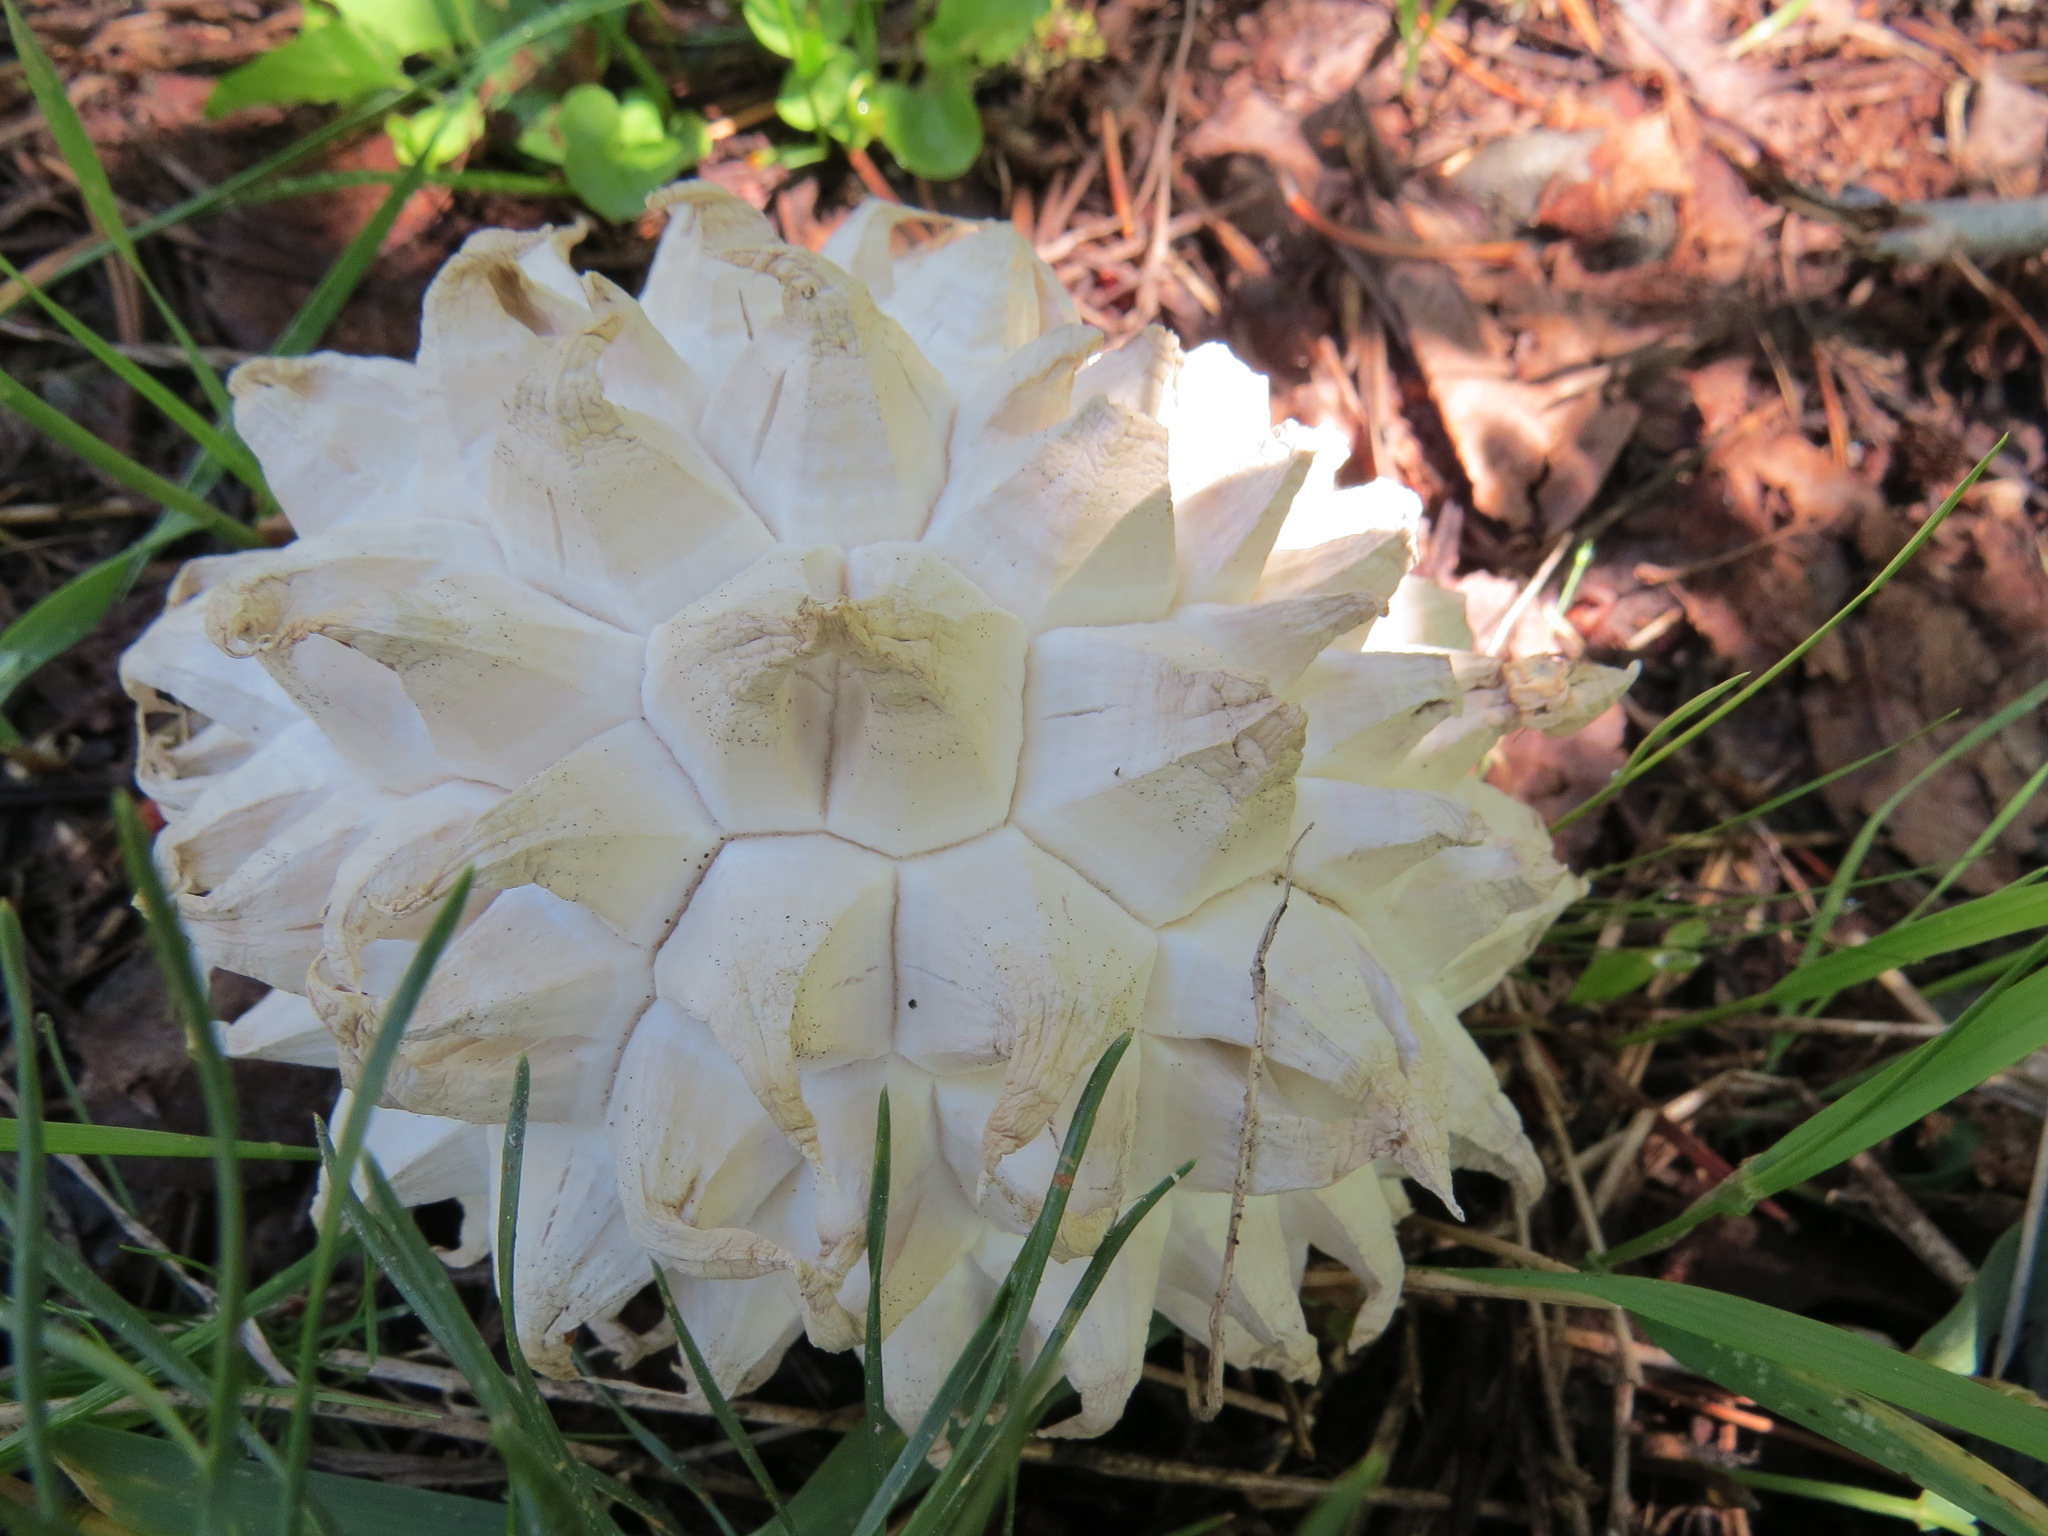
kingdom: Fungi
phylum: Basidiomycota
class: Agaricomycetes
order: Agaricales
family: Lycoperdaceae
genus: Calvatia
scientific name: Calvatia sculpta
